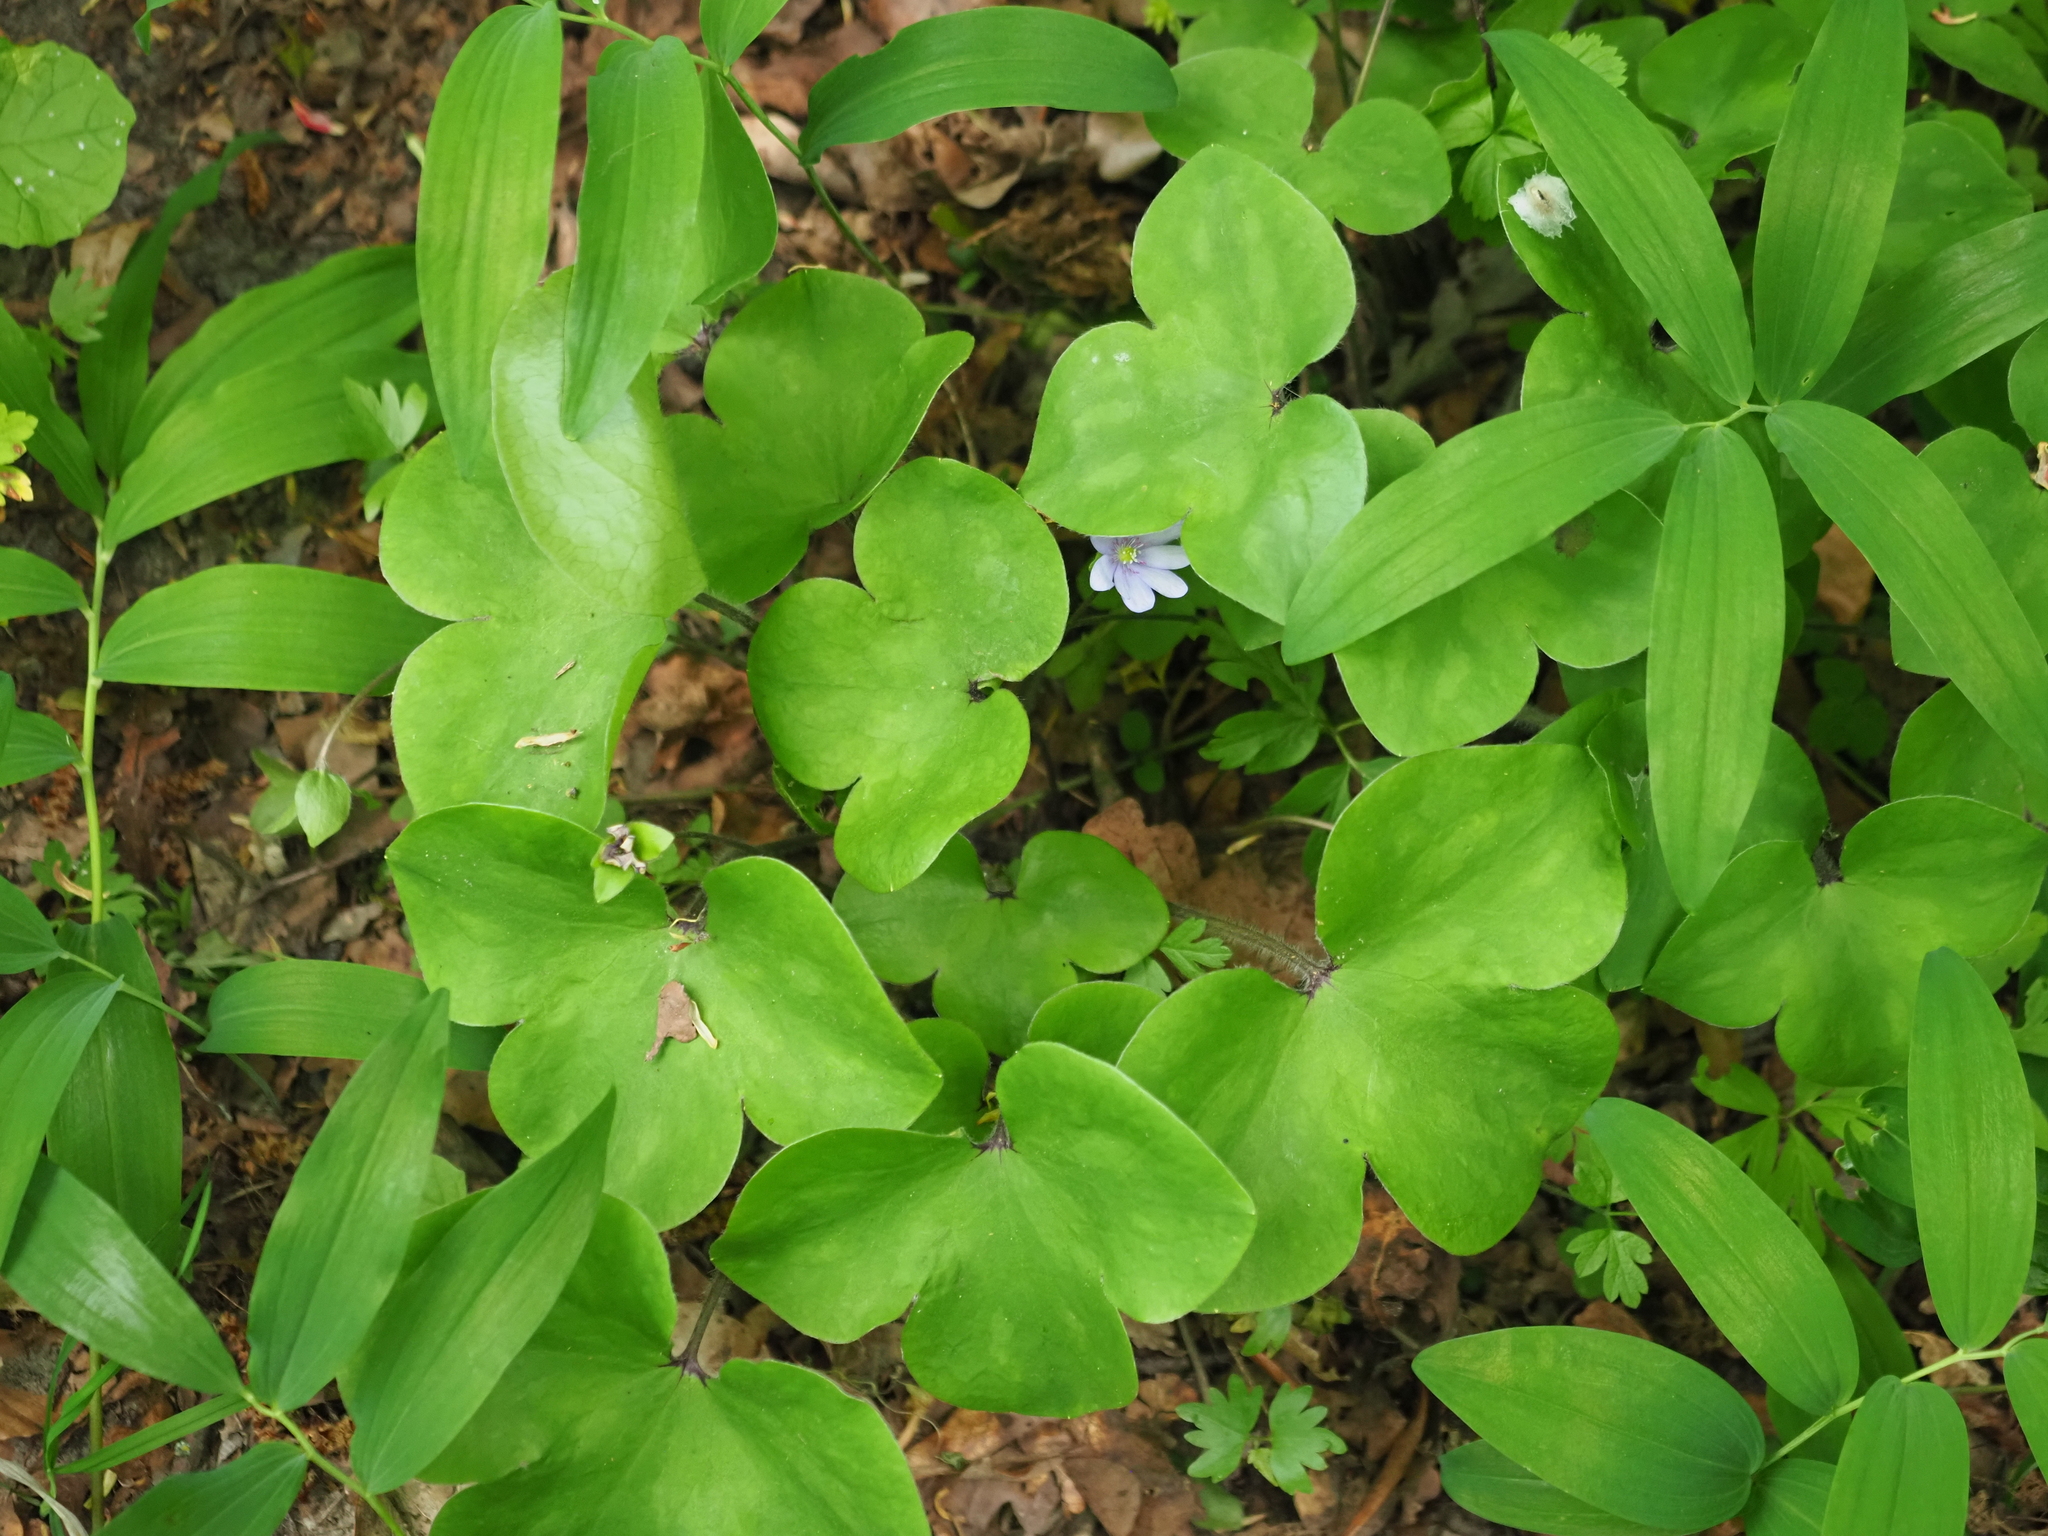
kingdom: Plantae
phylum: Tracheophyta
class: Magnoliopsida
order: Ranunculales
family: Ranunculaceae
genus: Hepatica
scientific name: Hepatica nobilis
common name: Liverleaf
